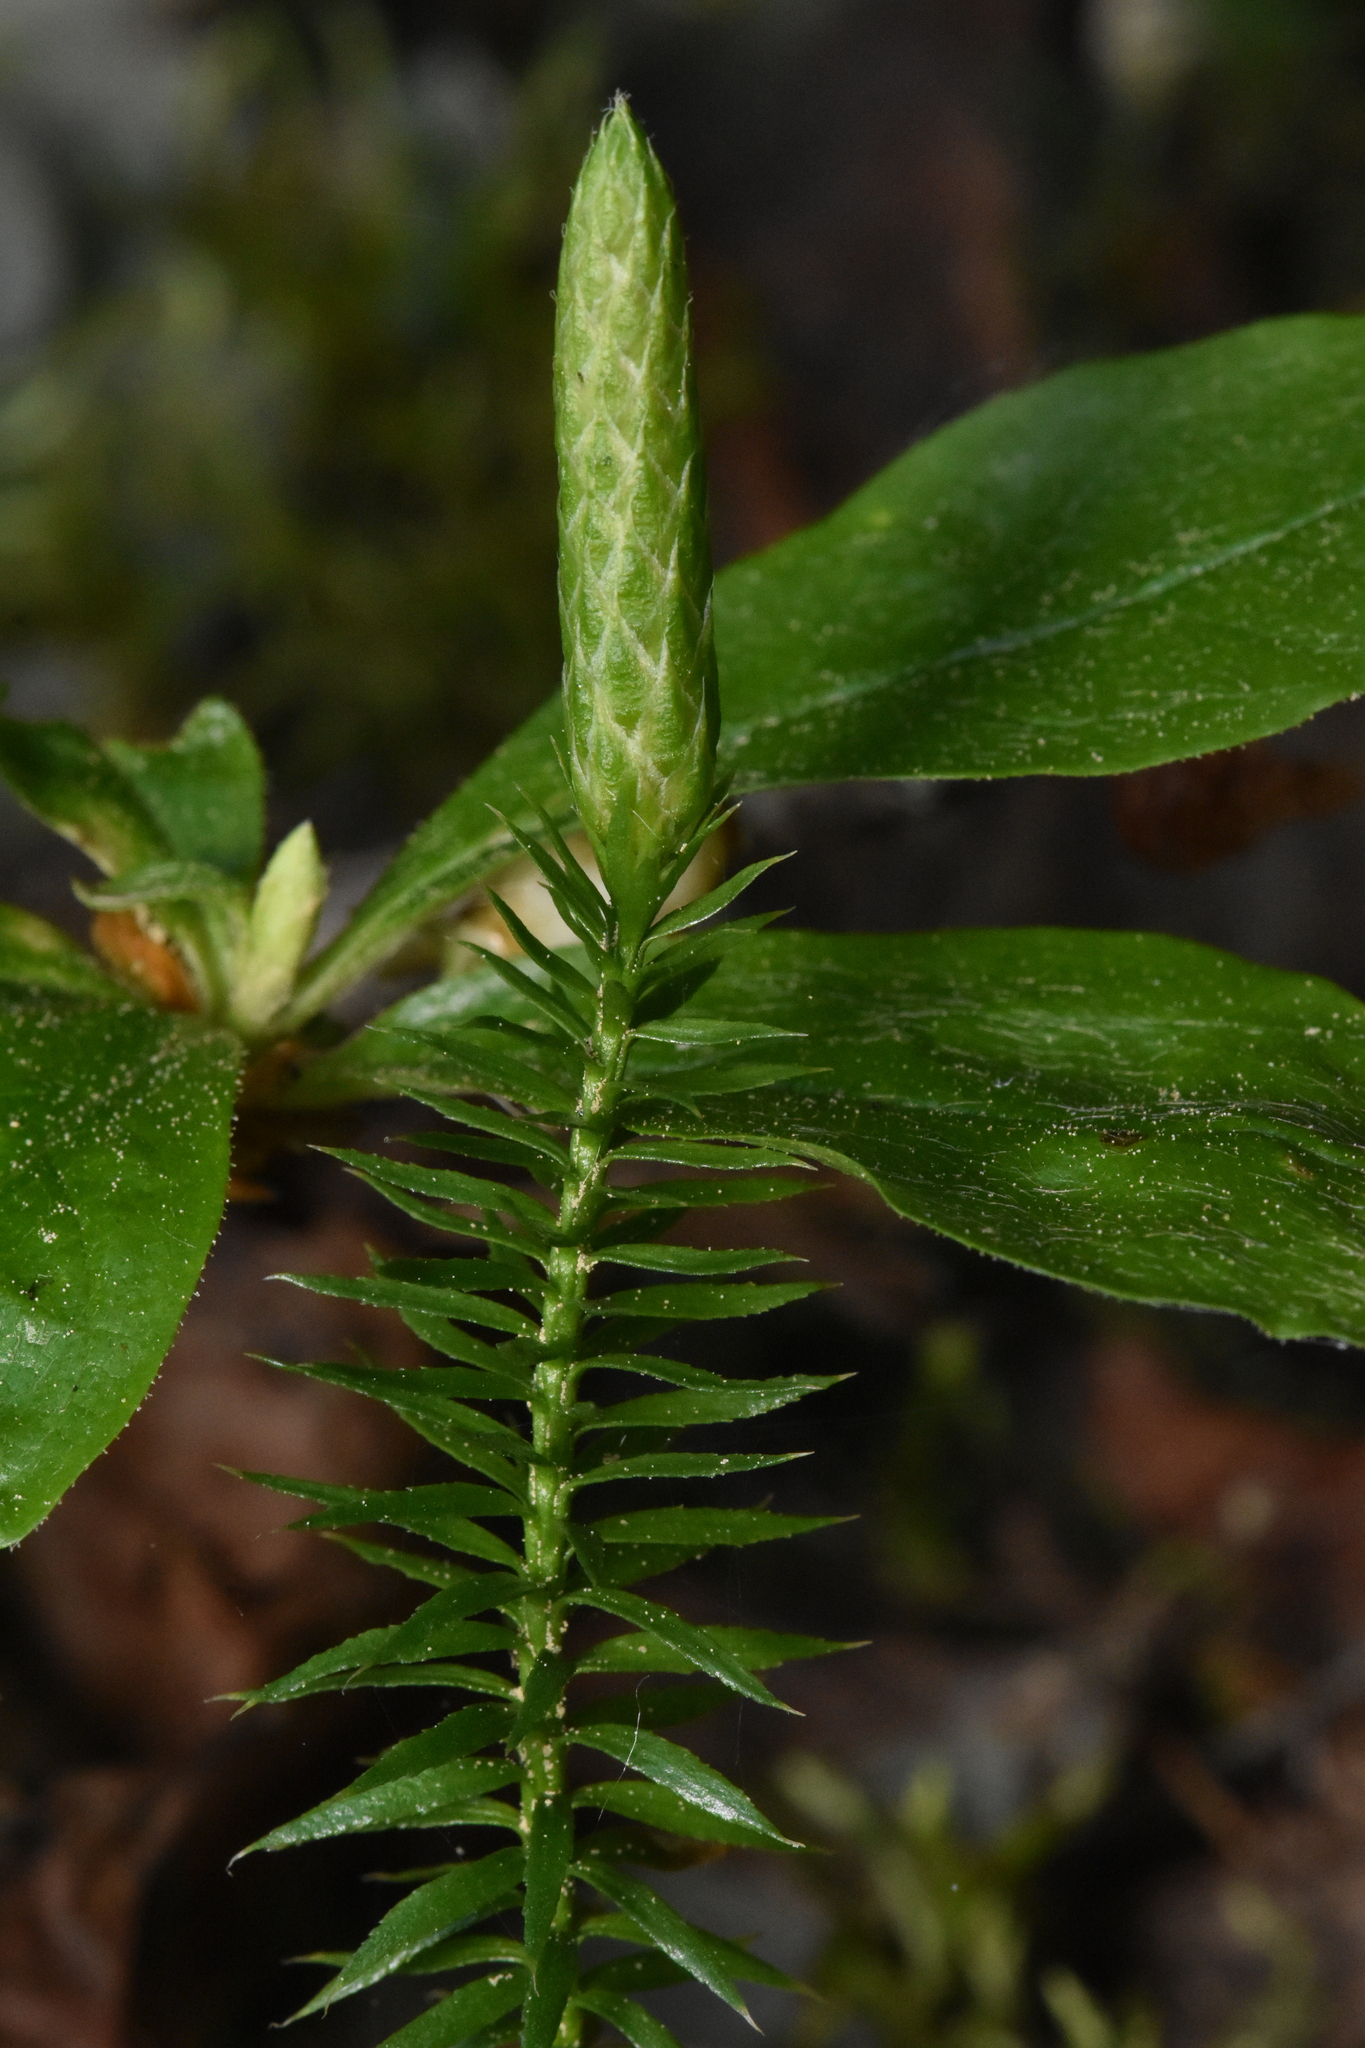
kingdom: Plantae
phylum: Tracheophyta
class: Lycopodiopsida
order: Lycopodiales
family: Lycopodiaceae
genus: Spinulum
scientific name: Spinulum annotinum
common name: Interrupted club-moss
